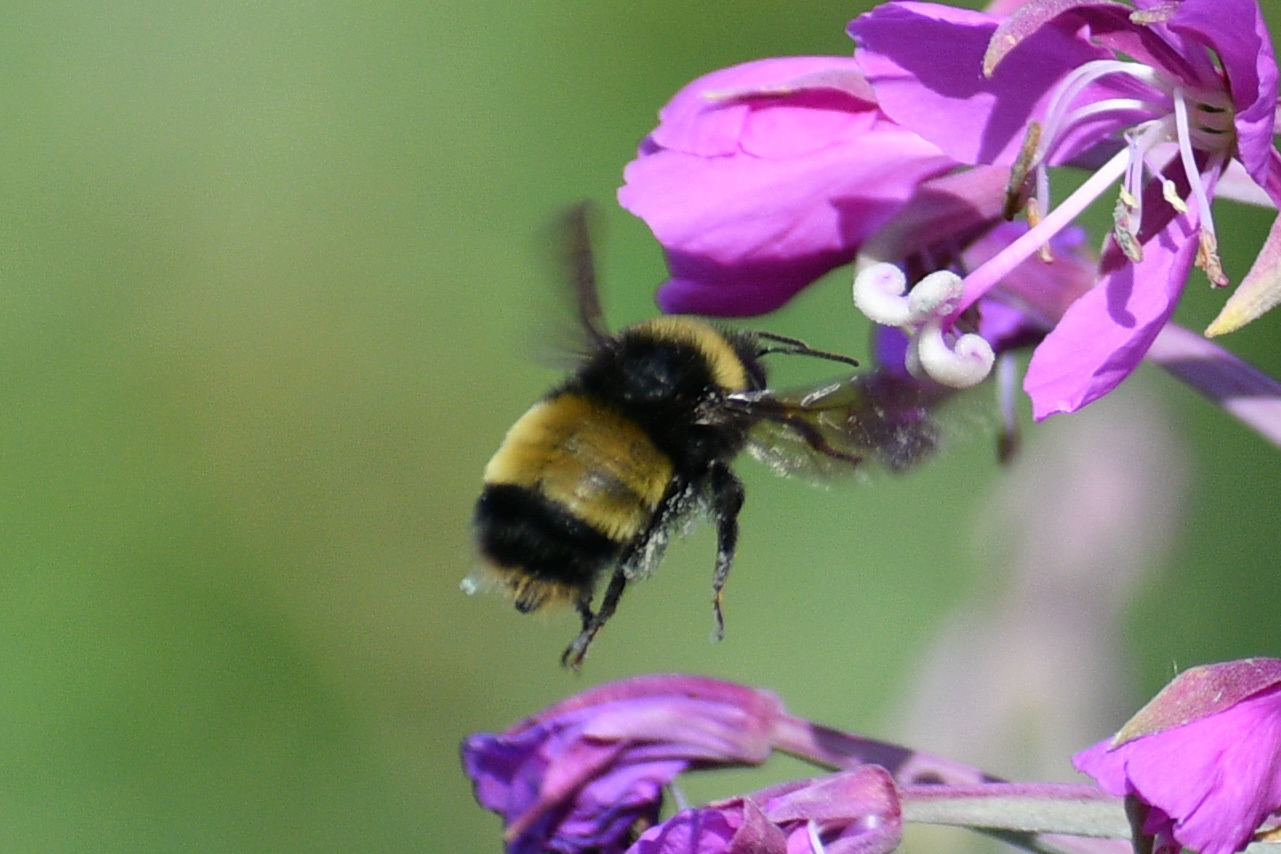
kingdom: Animalia
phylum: Arthropoda
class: Insecta
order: Hymenoptera
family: Apidae
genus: Bombus
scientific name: Bombus terricola
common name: Yellow-banded bumble bee
